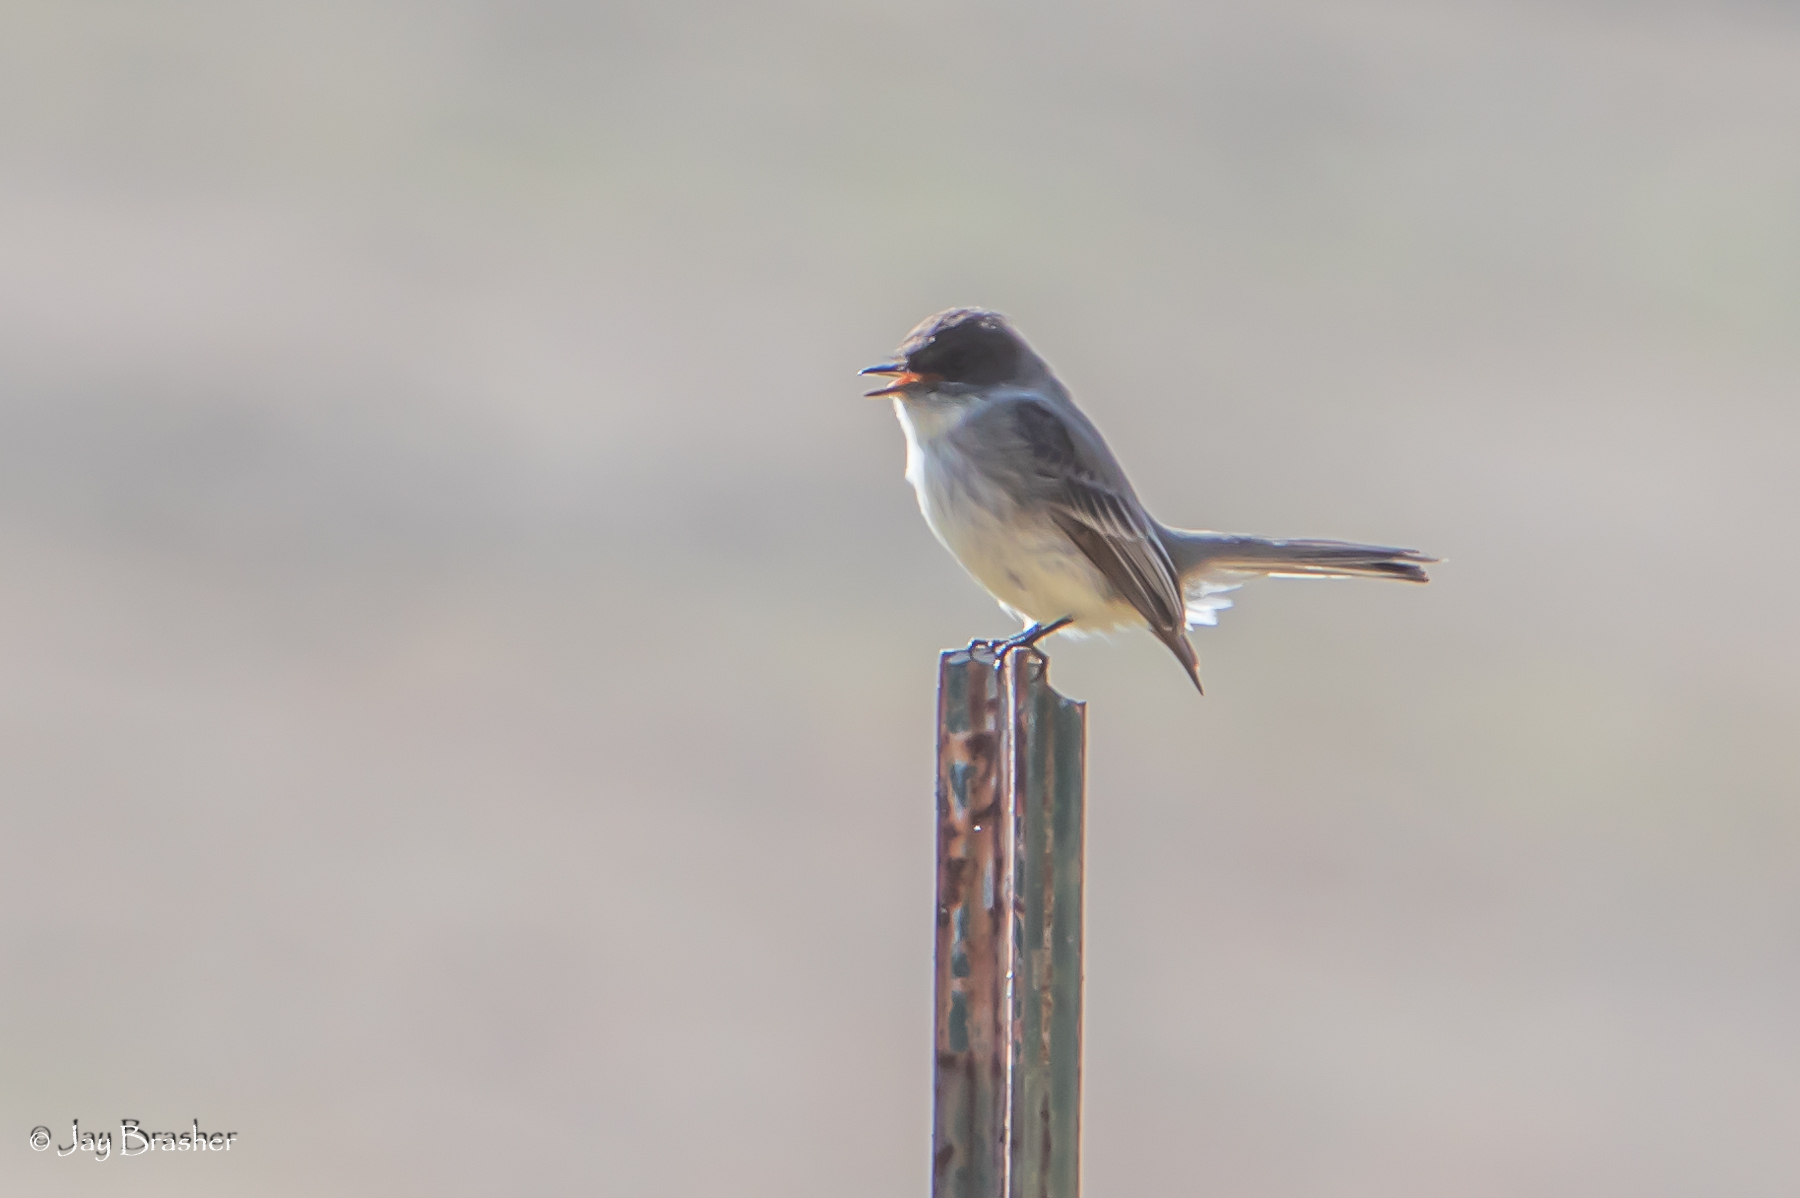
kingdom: Animalia
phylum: Chordata
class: Aves
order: Passeriformes
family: Tyrannidae
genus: Sayornis
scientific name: Sayornis phoebe
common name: Eastern phoebe
